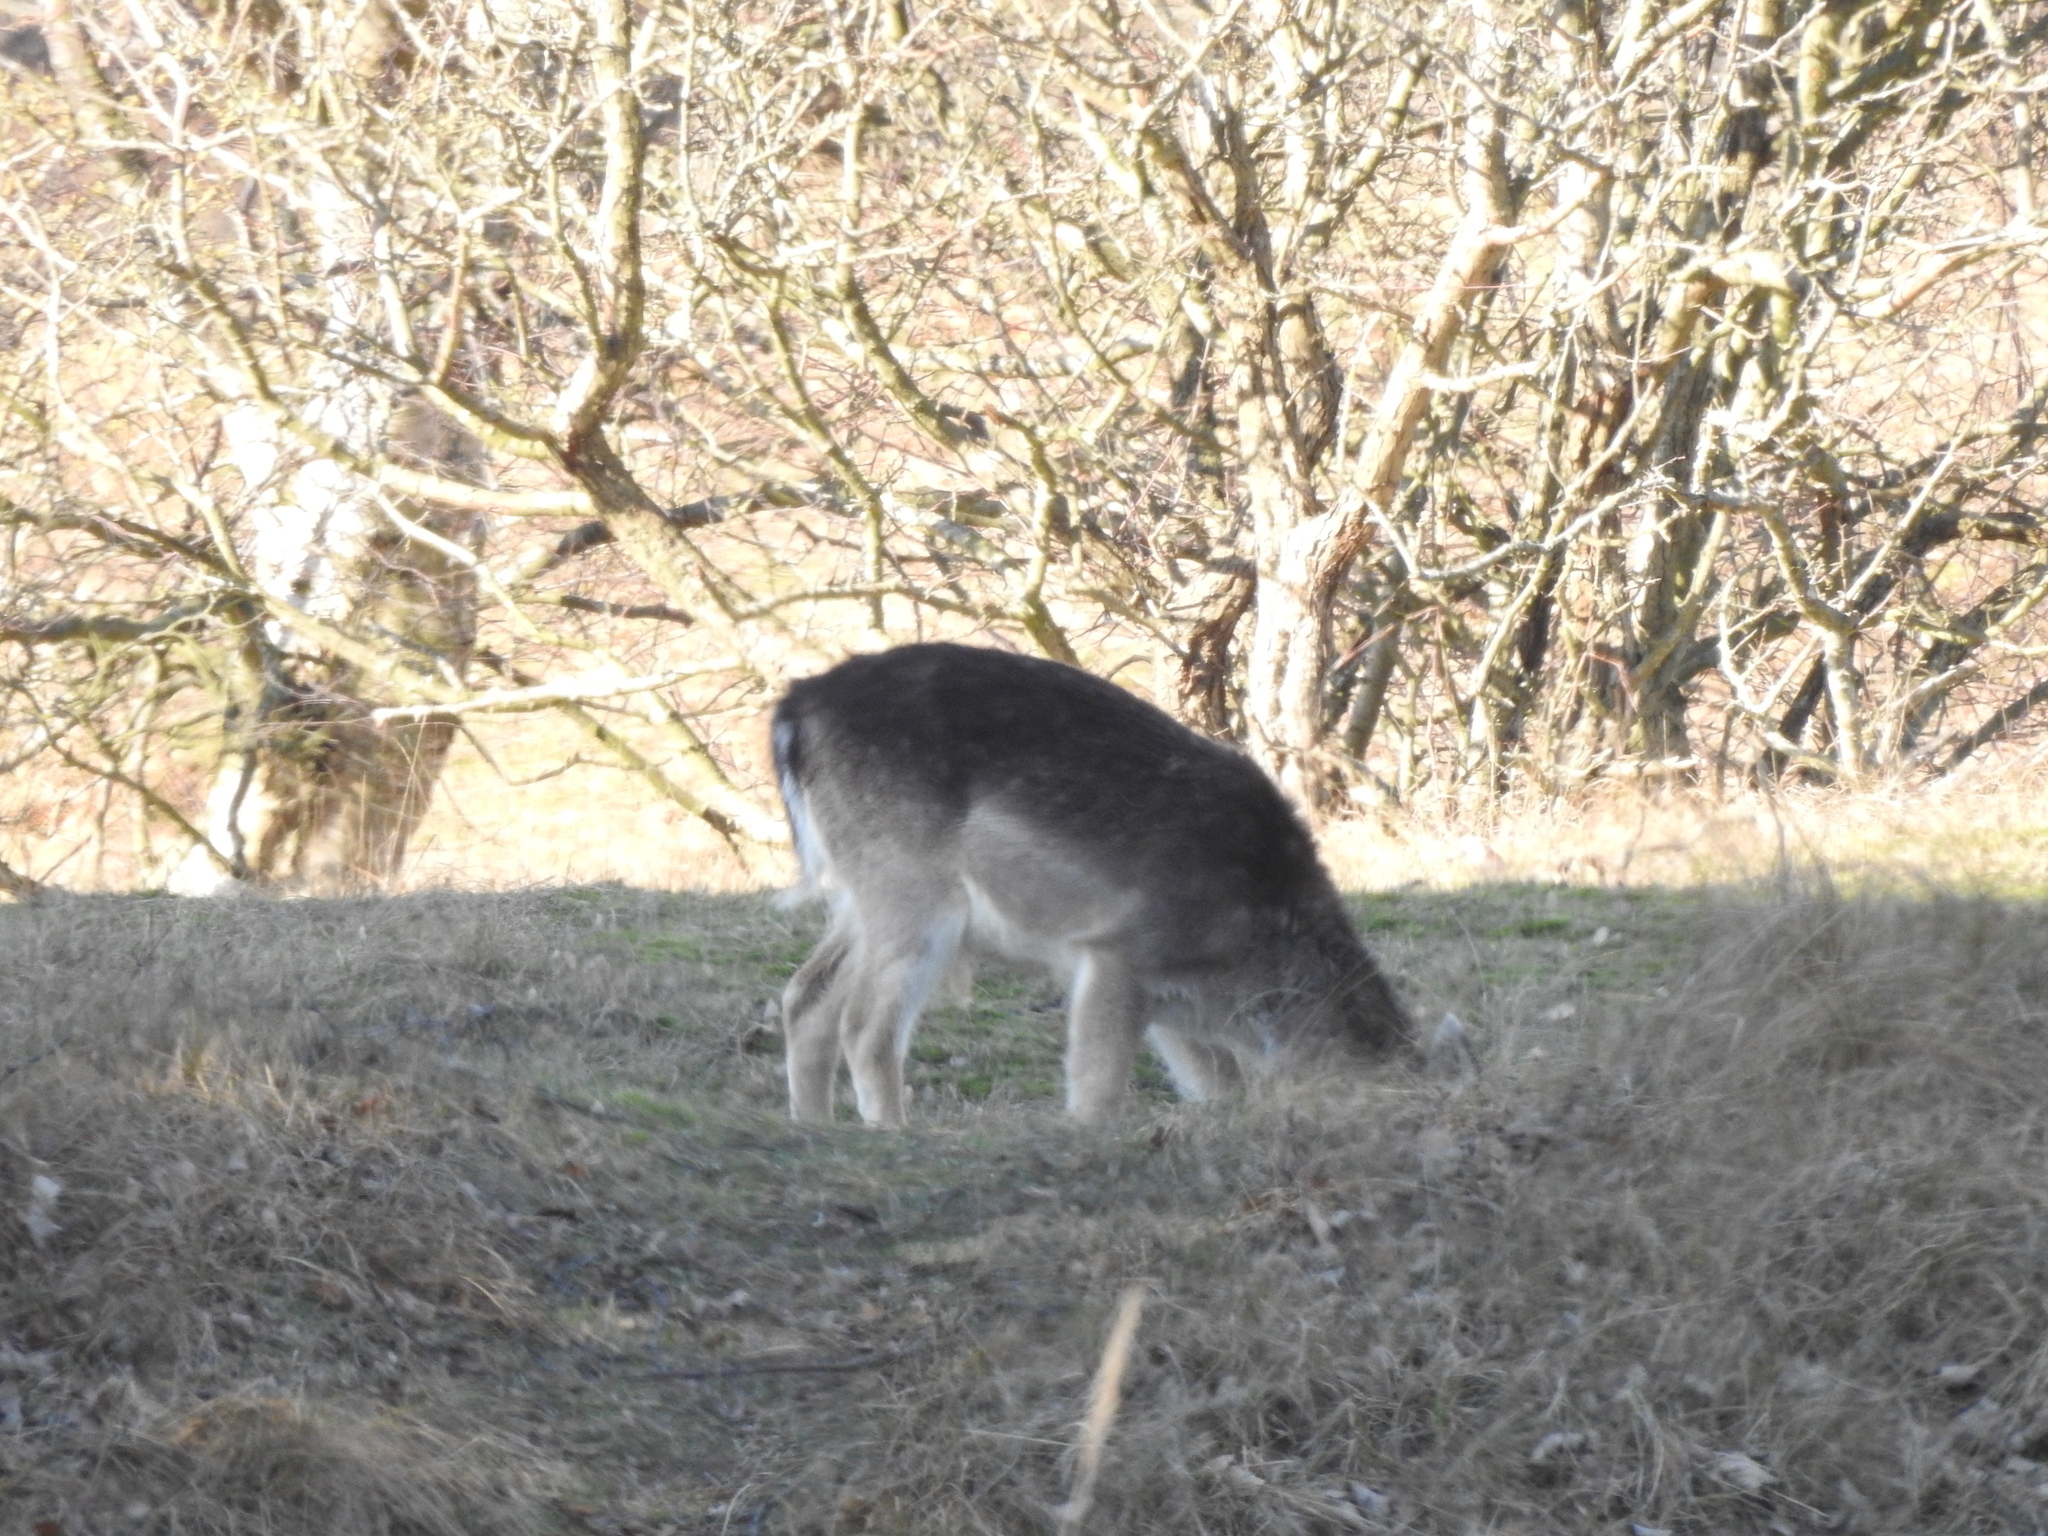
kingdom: Animalia
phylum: Chordata
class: Mammalia
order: Artiodactyla
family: Cervidae
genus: Dama
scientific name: Dama dama
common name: Fallow deer
